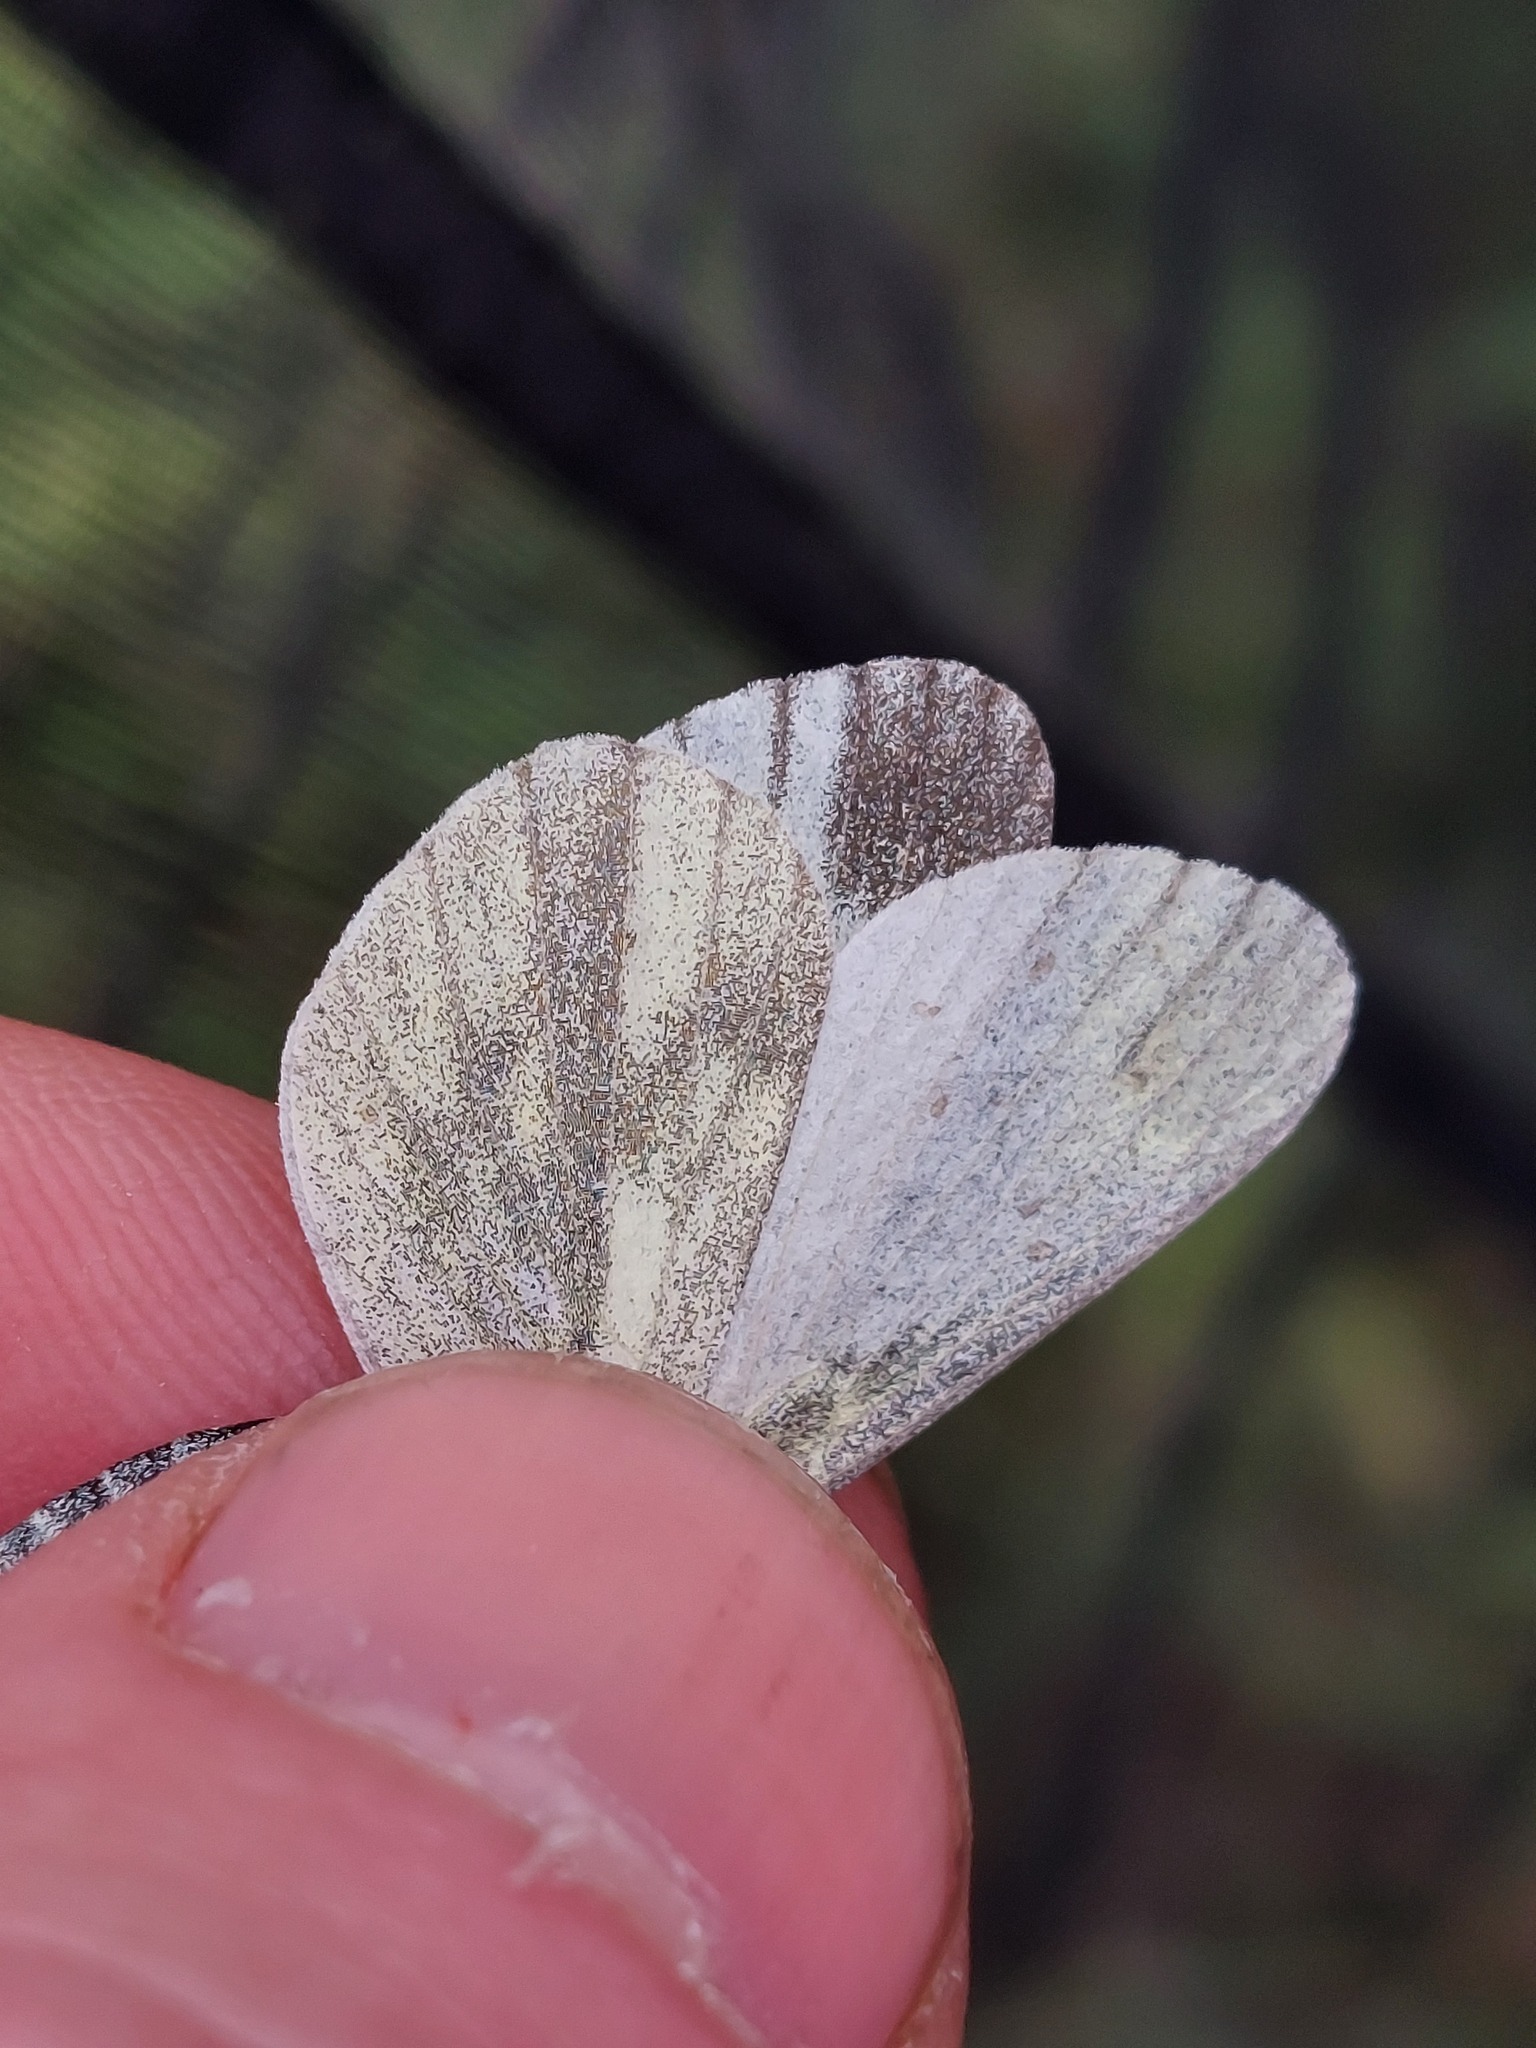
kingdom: Animalia
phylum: Arthropoda
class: Insecta
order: Lepidoptera
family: Pieridae
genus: Leptidea
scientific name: Leptidea
